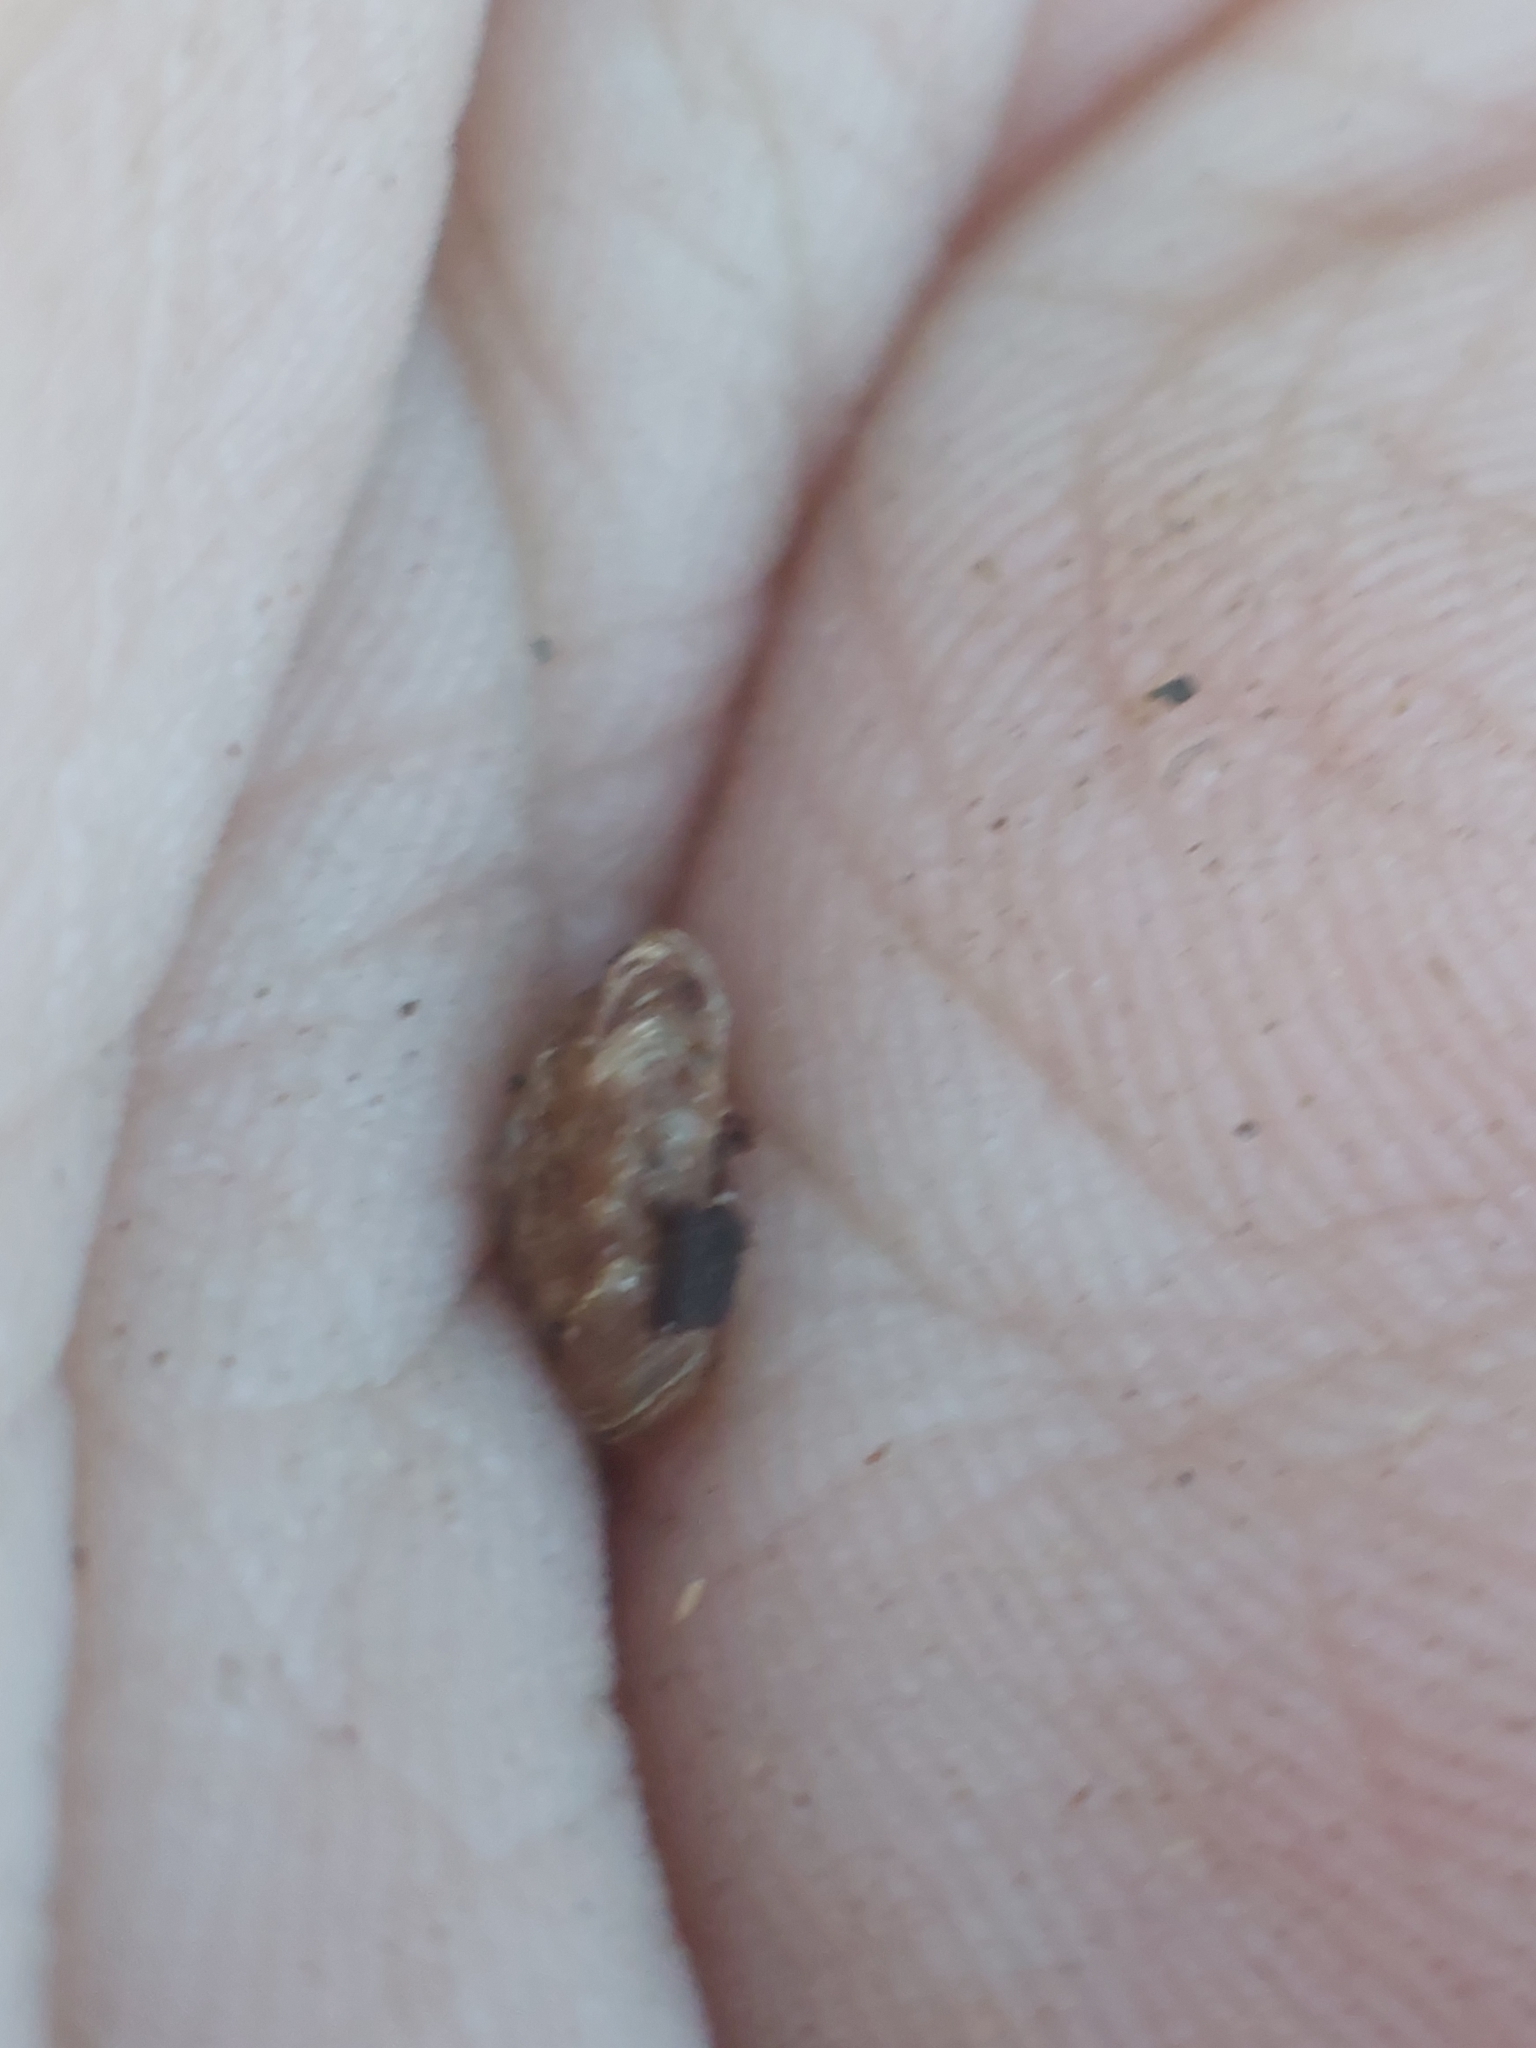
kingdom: Animalia
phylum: Mollusca
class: Gastropoda
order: Stylommatophora
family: Discidae
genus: Discus
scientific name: Discus rotundatus
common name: Rounded snail
